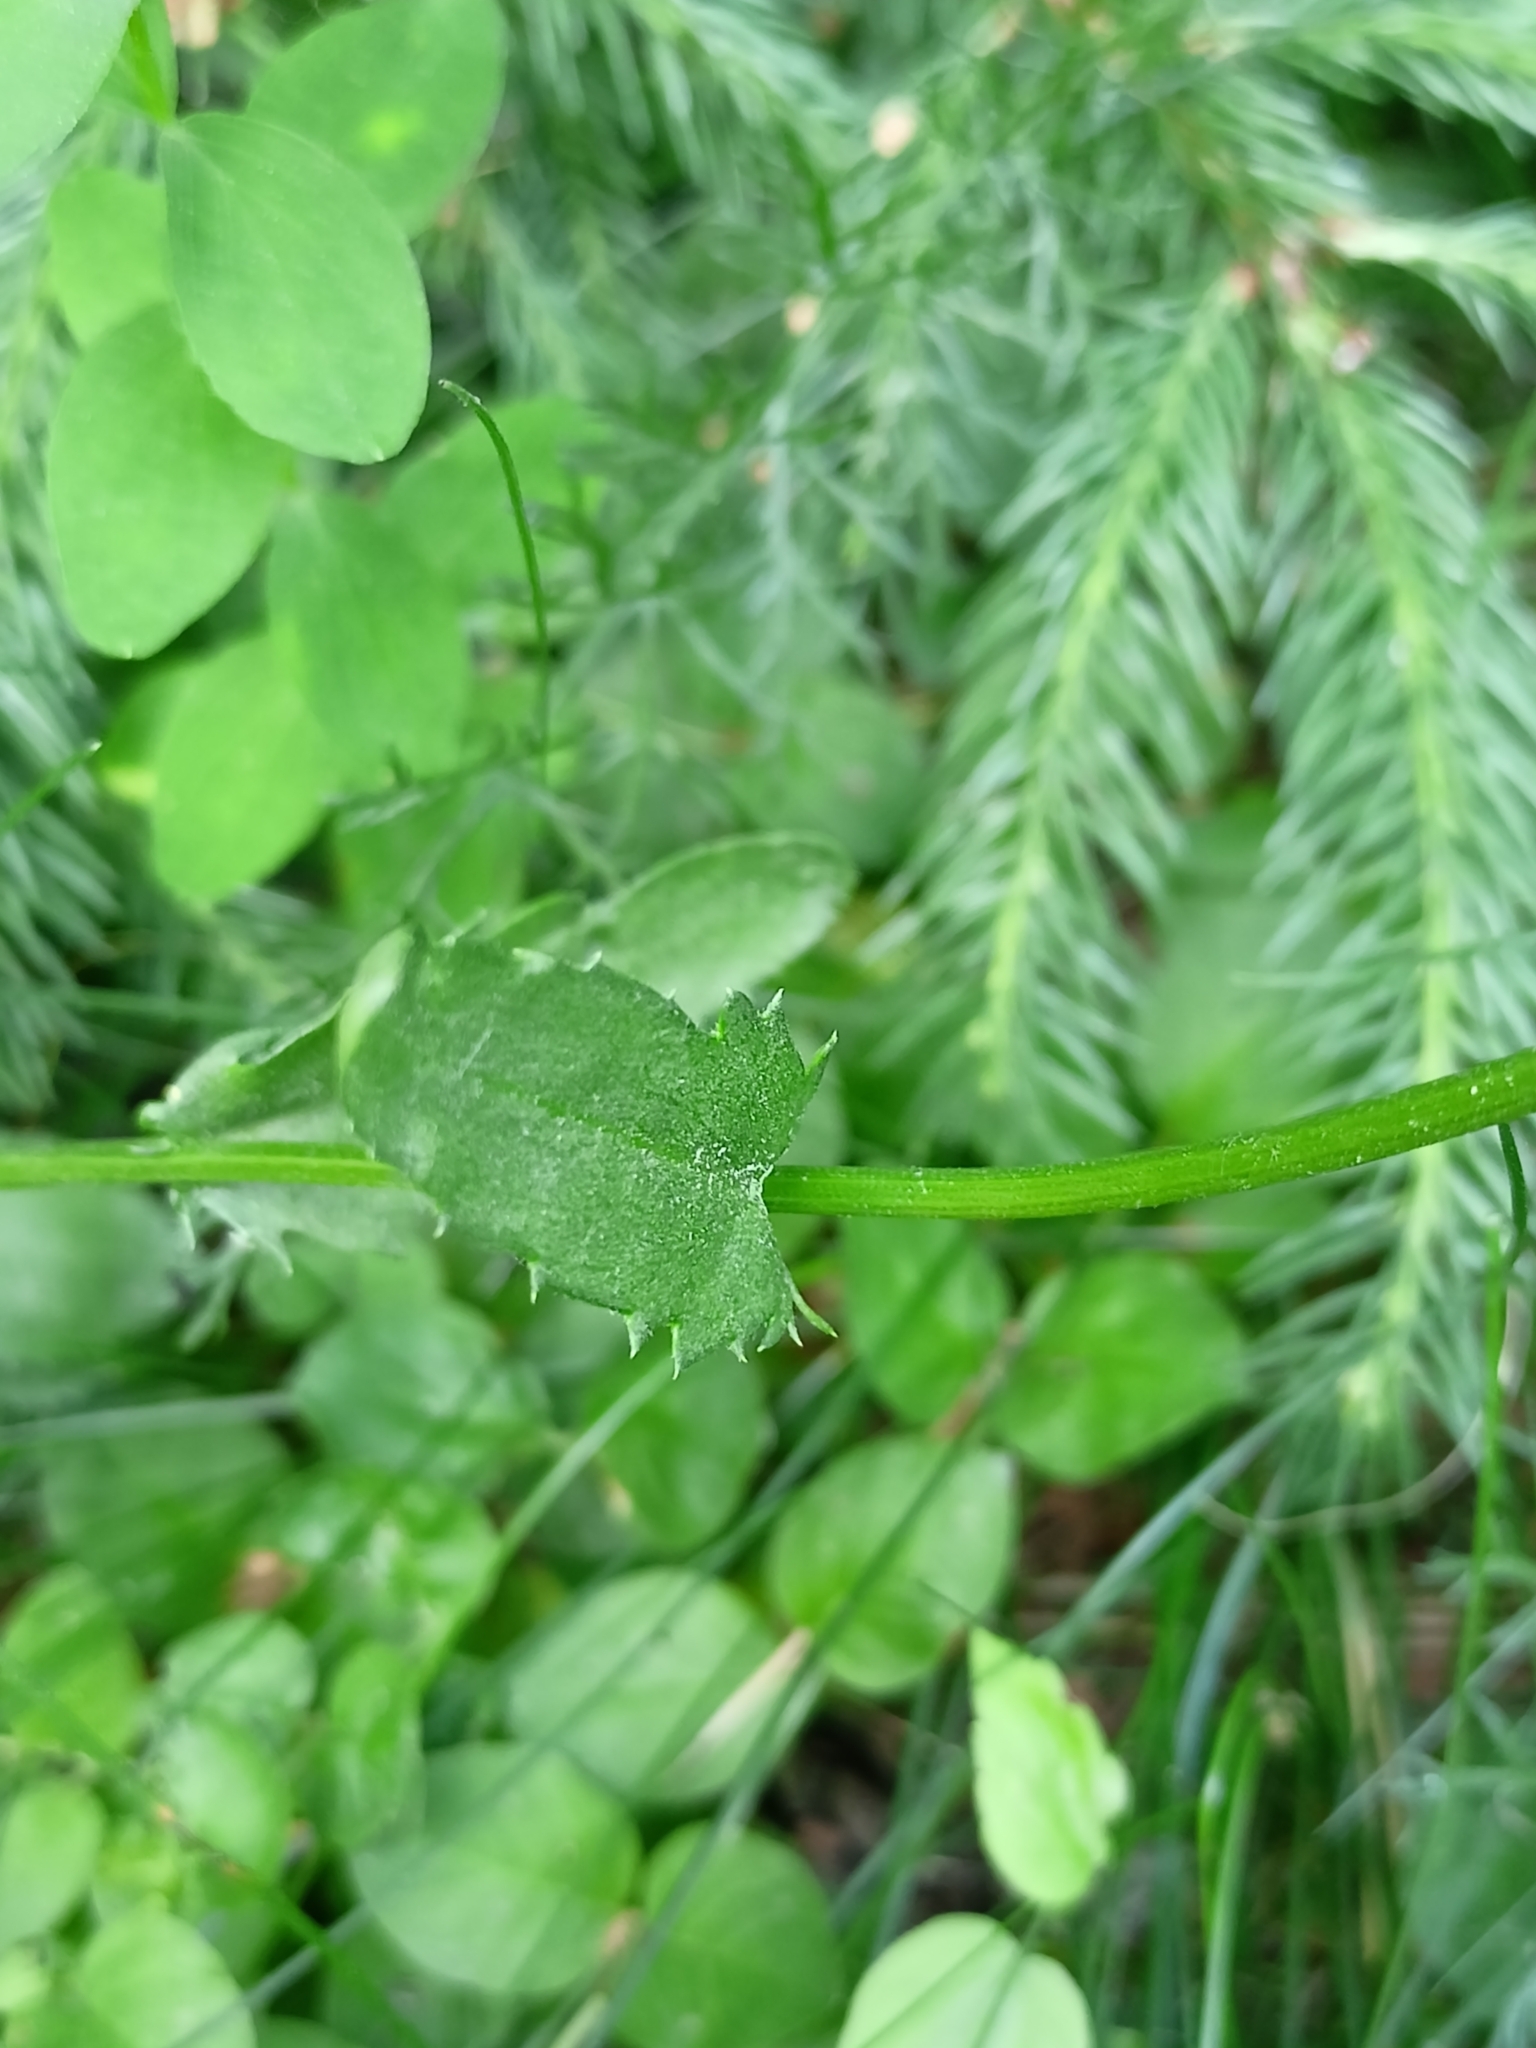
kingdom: Plantae
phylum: Tracheophyta
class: Magnoliopsida
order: Asterales
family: Asteraceae
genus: Leucanthemum
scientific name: Leucanthemum vulgare
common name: Oxeye daisy
